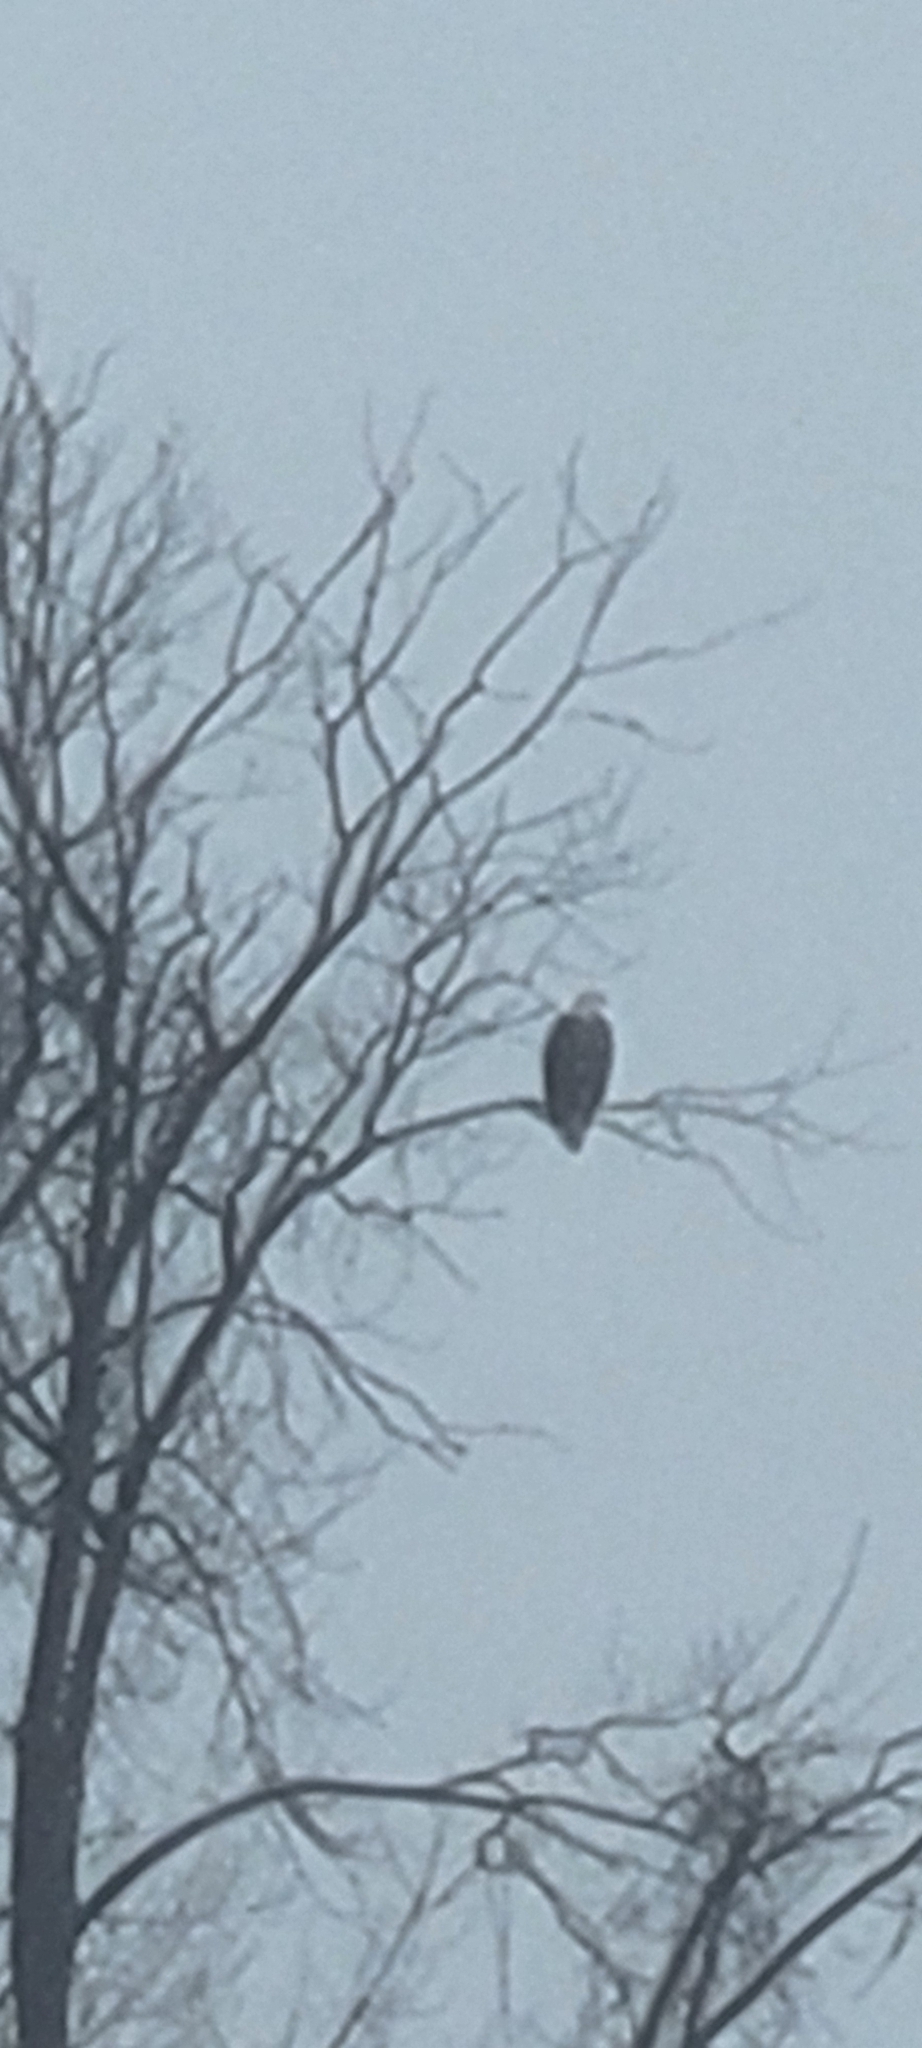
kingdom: Animalia
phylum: Chordata
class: Aves
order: Accipitriformes
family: Accipitridae
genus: Haliaeetus
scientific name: Haliaeetus leucocephalus
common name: Bald eagle
